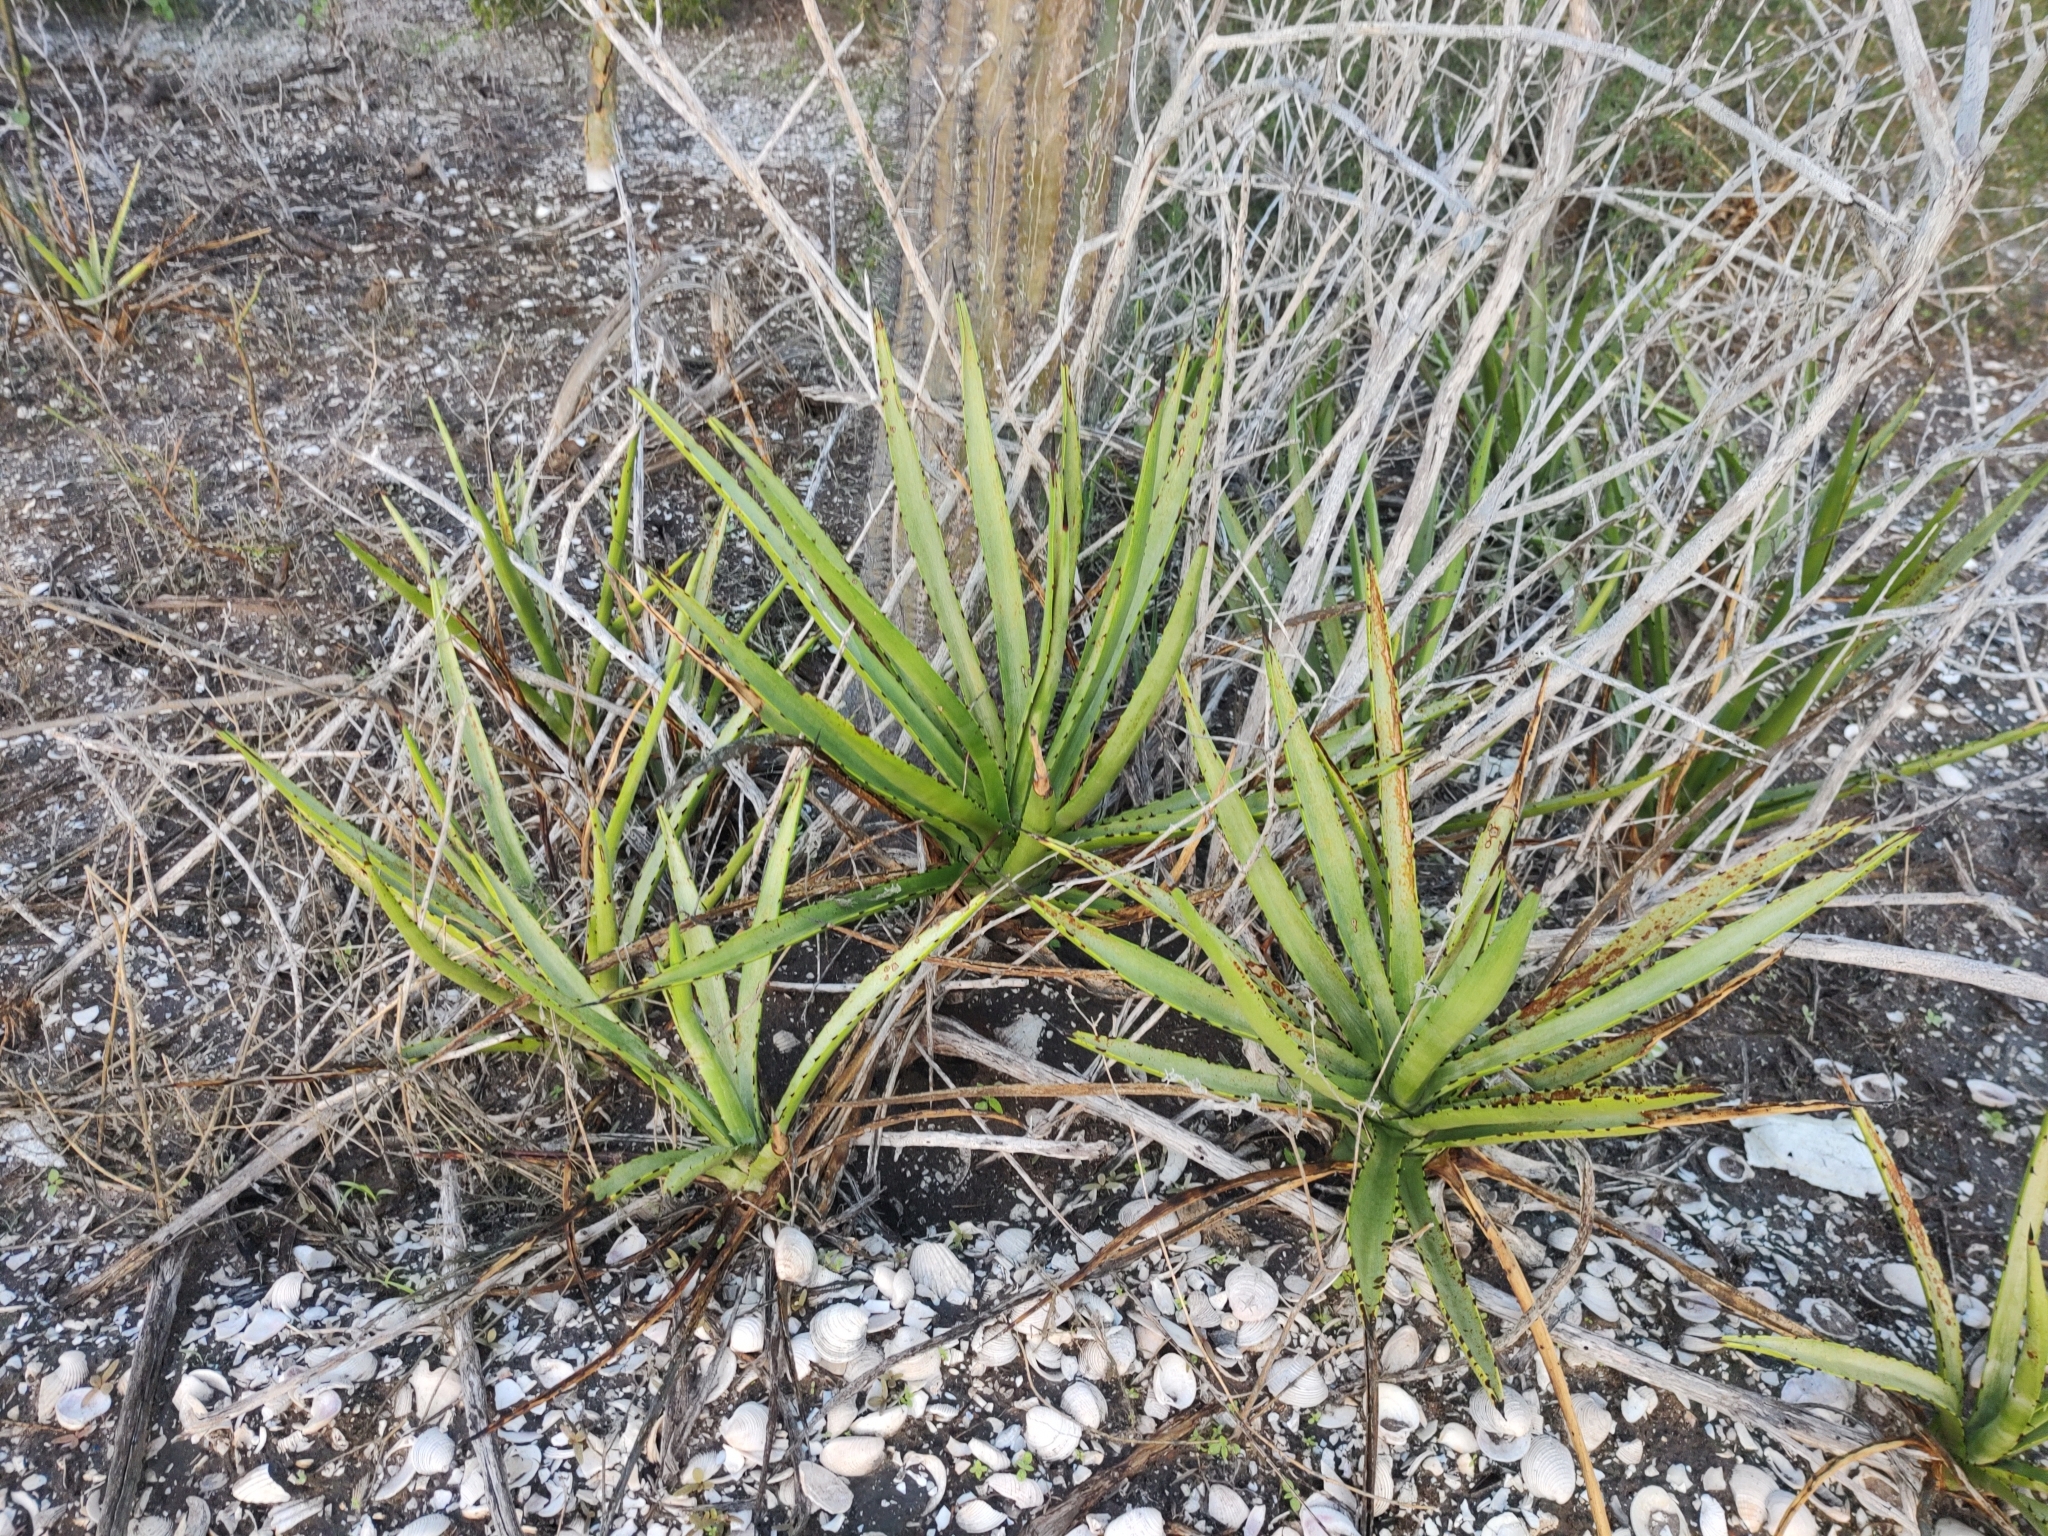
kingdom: Plantae
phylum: Tracheophyta
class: Liliopsida
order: Asparagales
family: Asparagaceae
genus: Agave
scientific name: Agave datylio
